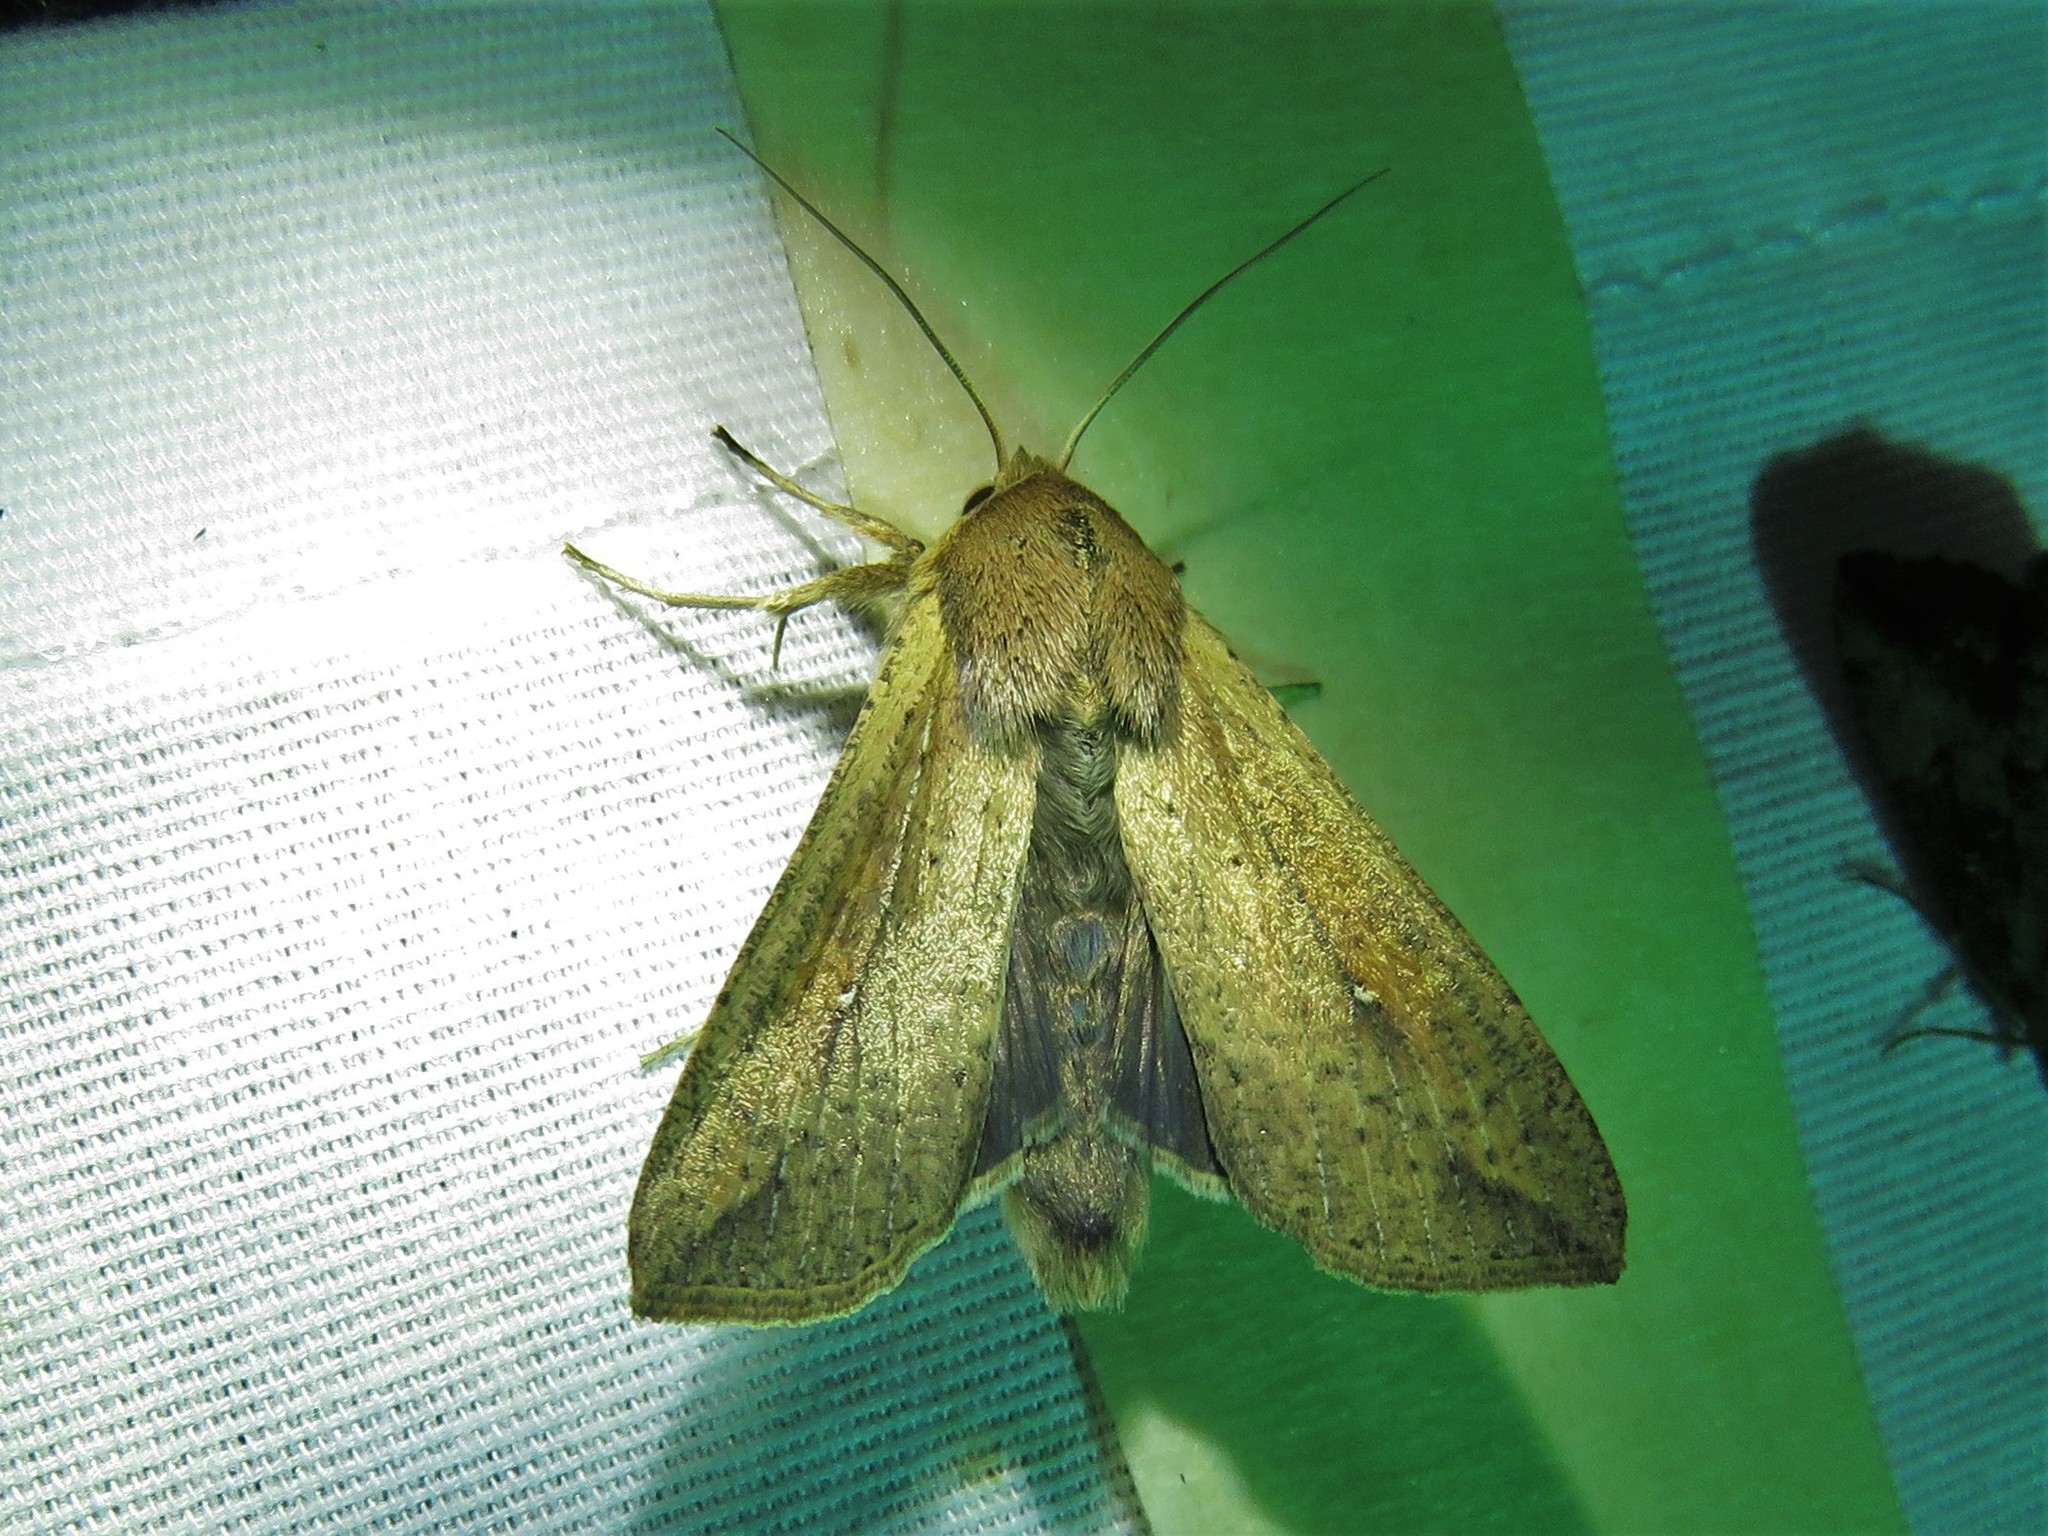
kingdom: Animalia
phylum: Arthropoda
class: Insecta
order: Lepidoptera
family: Noctuidae
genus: Mythimna
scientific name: Mythimna unipuncta
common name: White-speck
